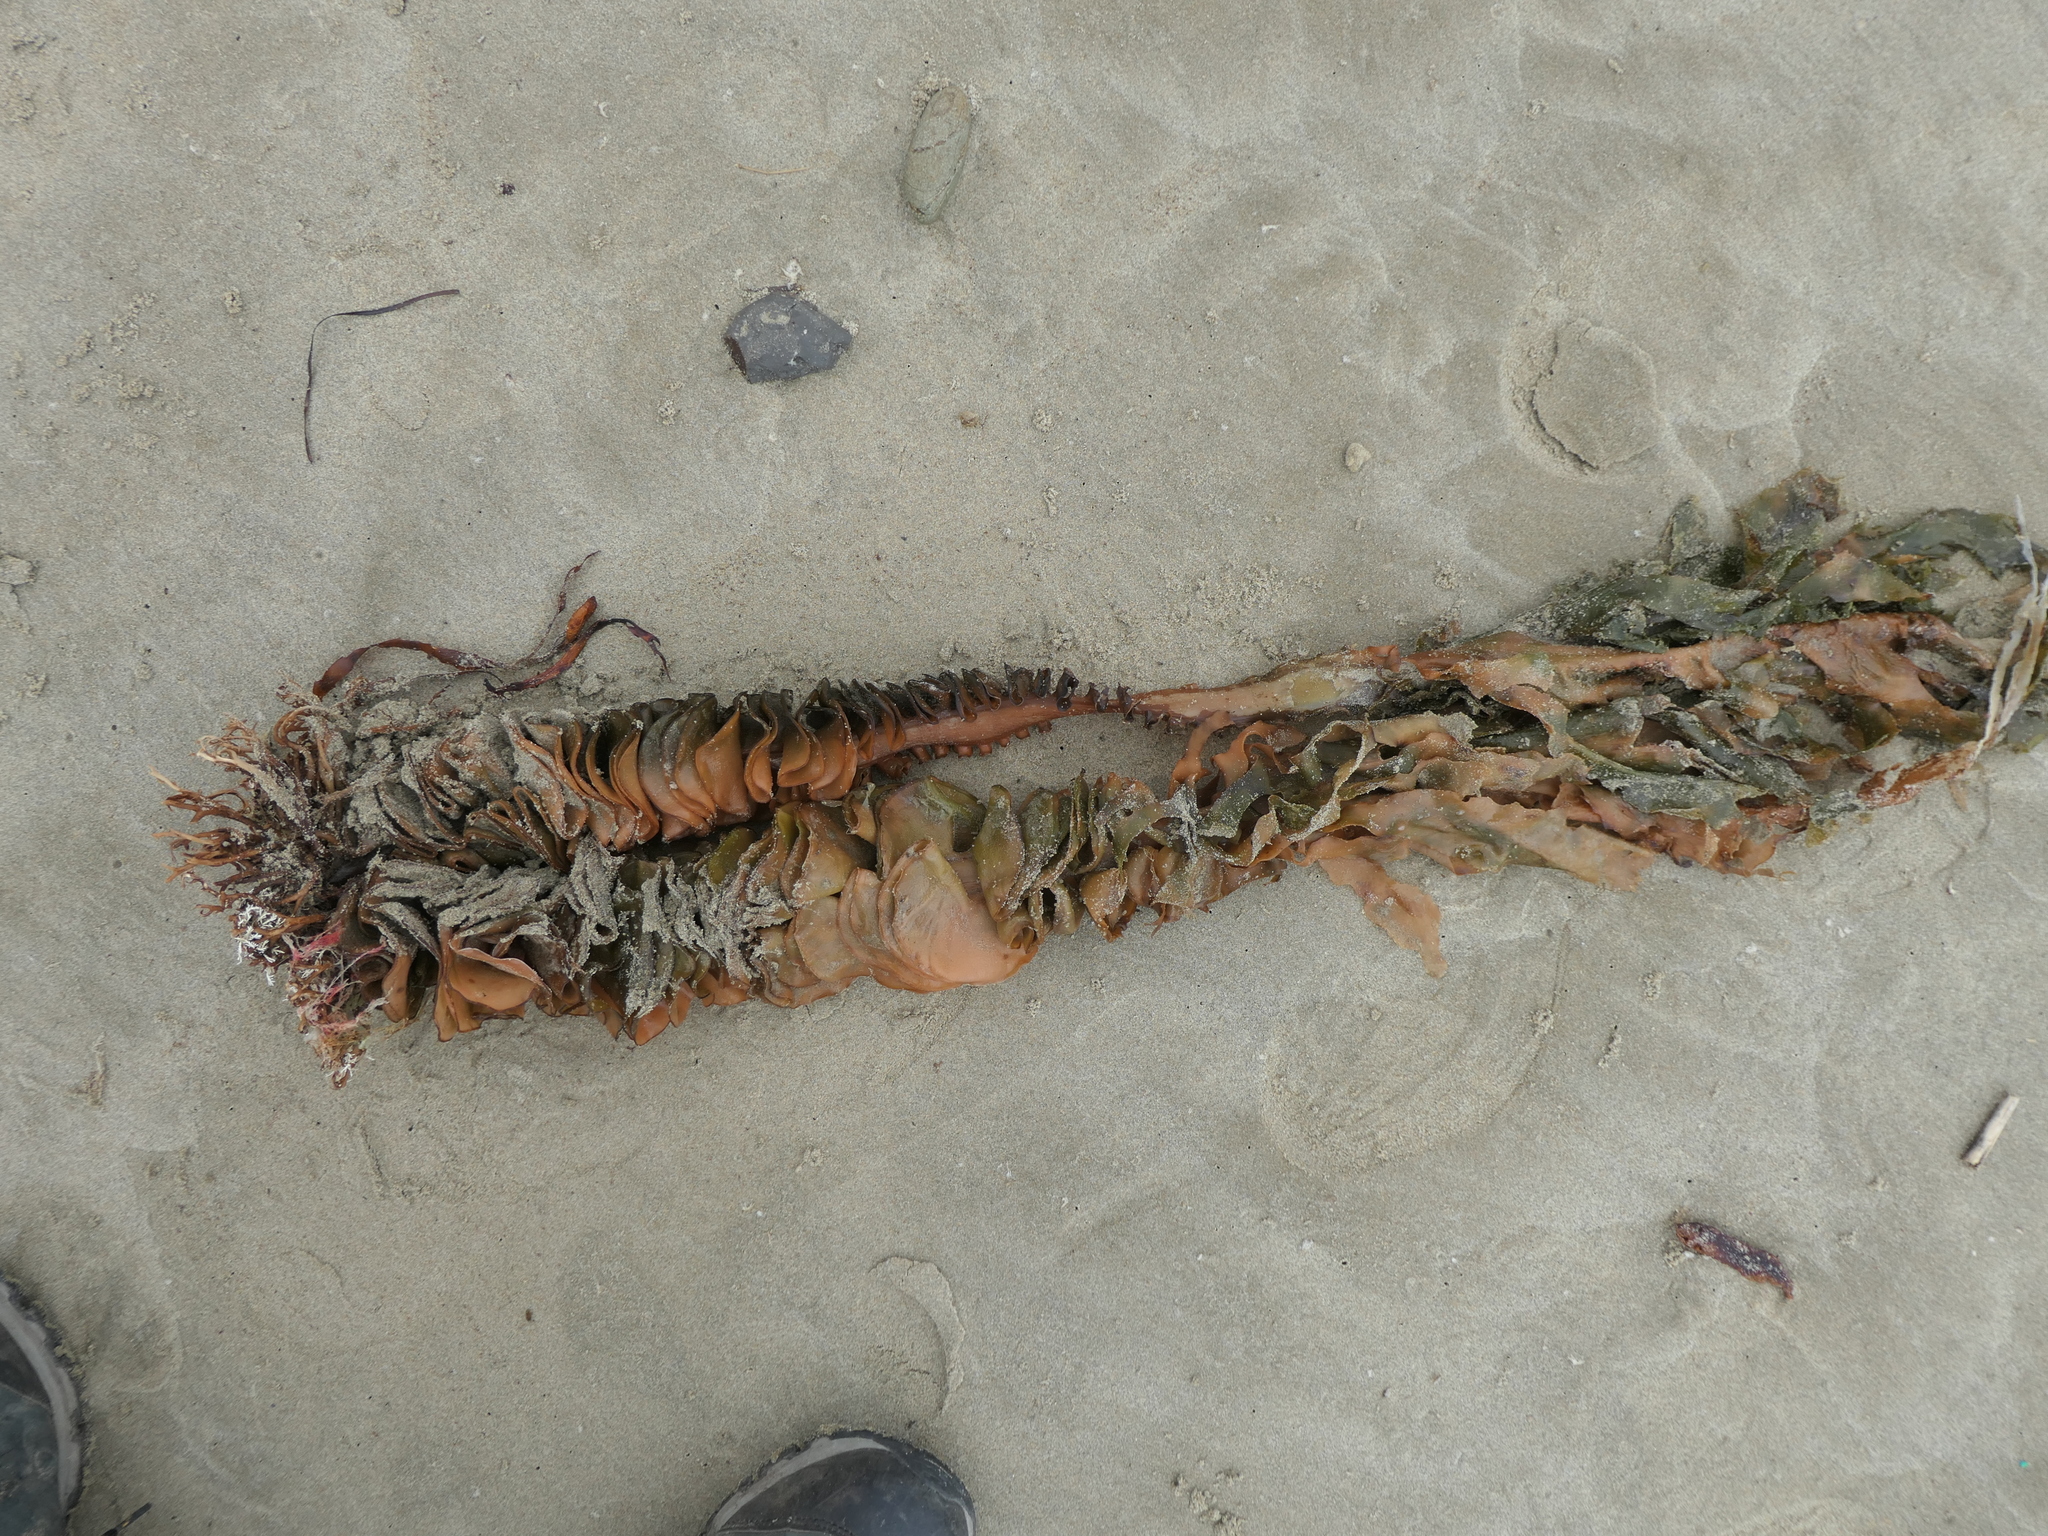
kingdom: Chromista
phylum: Ochrophyta
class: Phaeophyceae
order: Laminariales
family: Alariaceae
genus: Undaria
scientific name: Undaria pinnatifida
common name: Asian kelp
